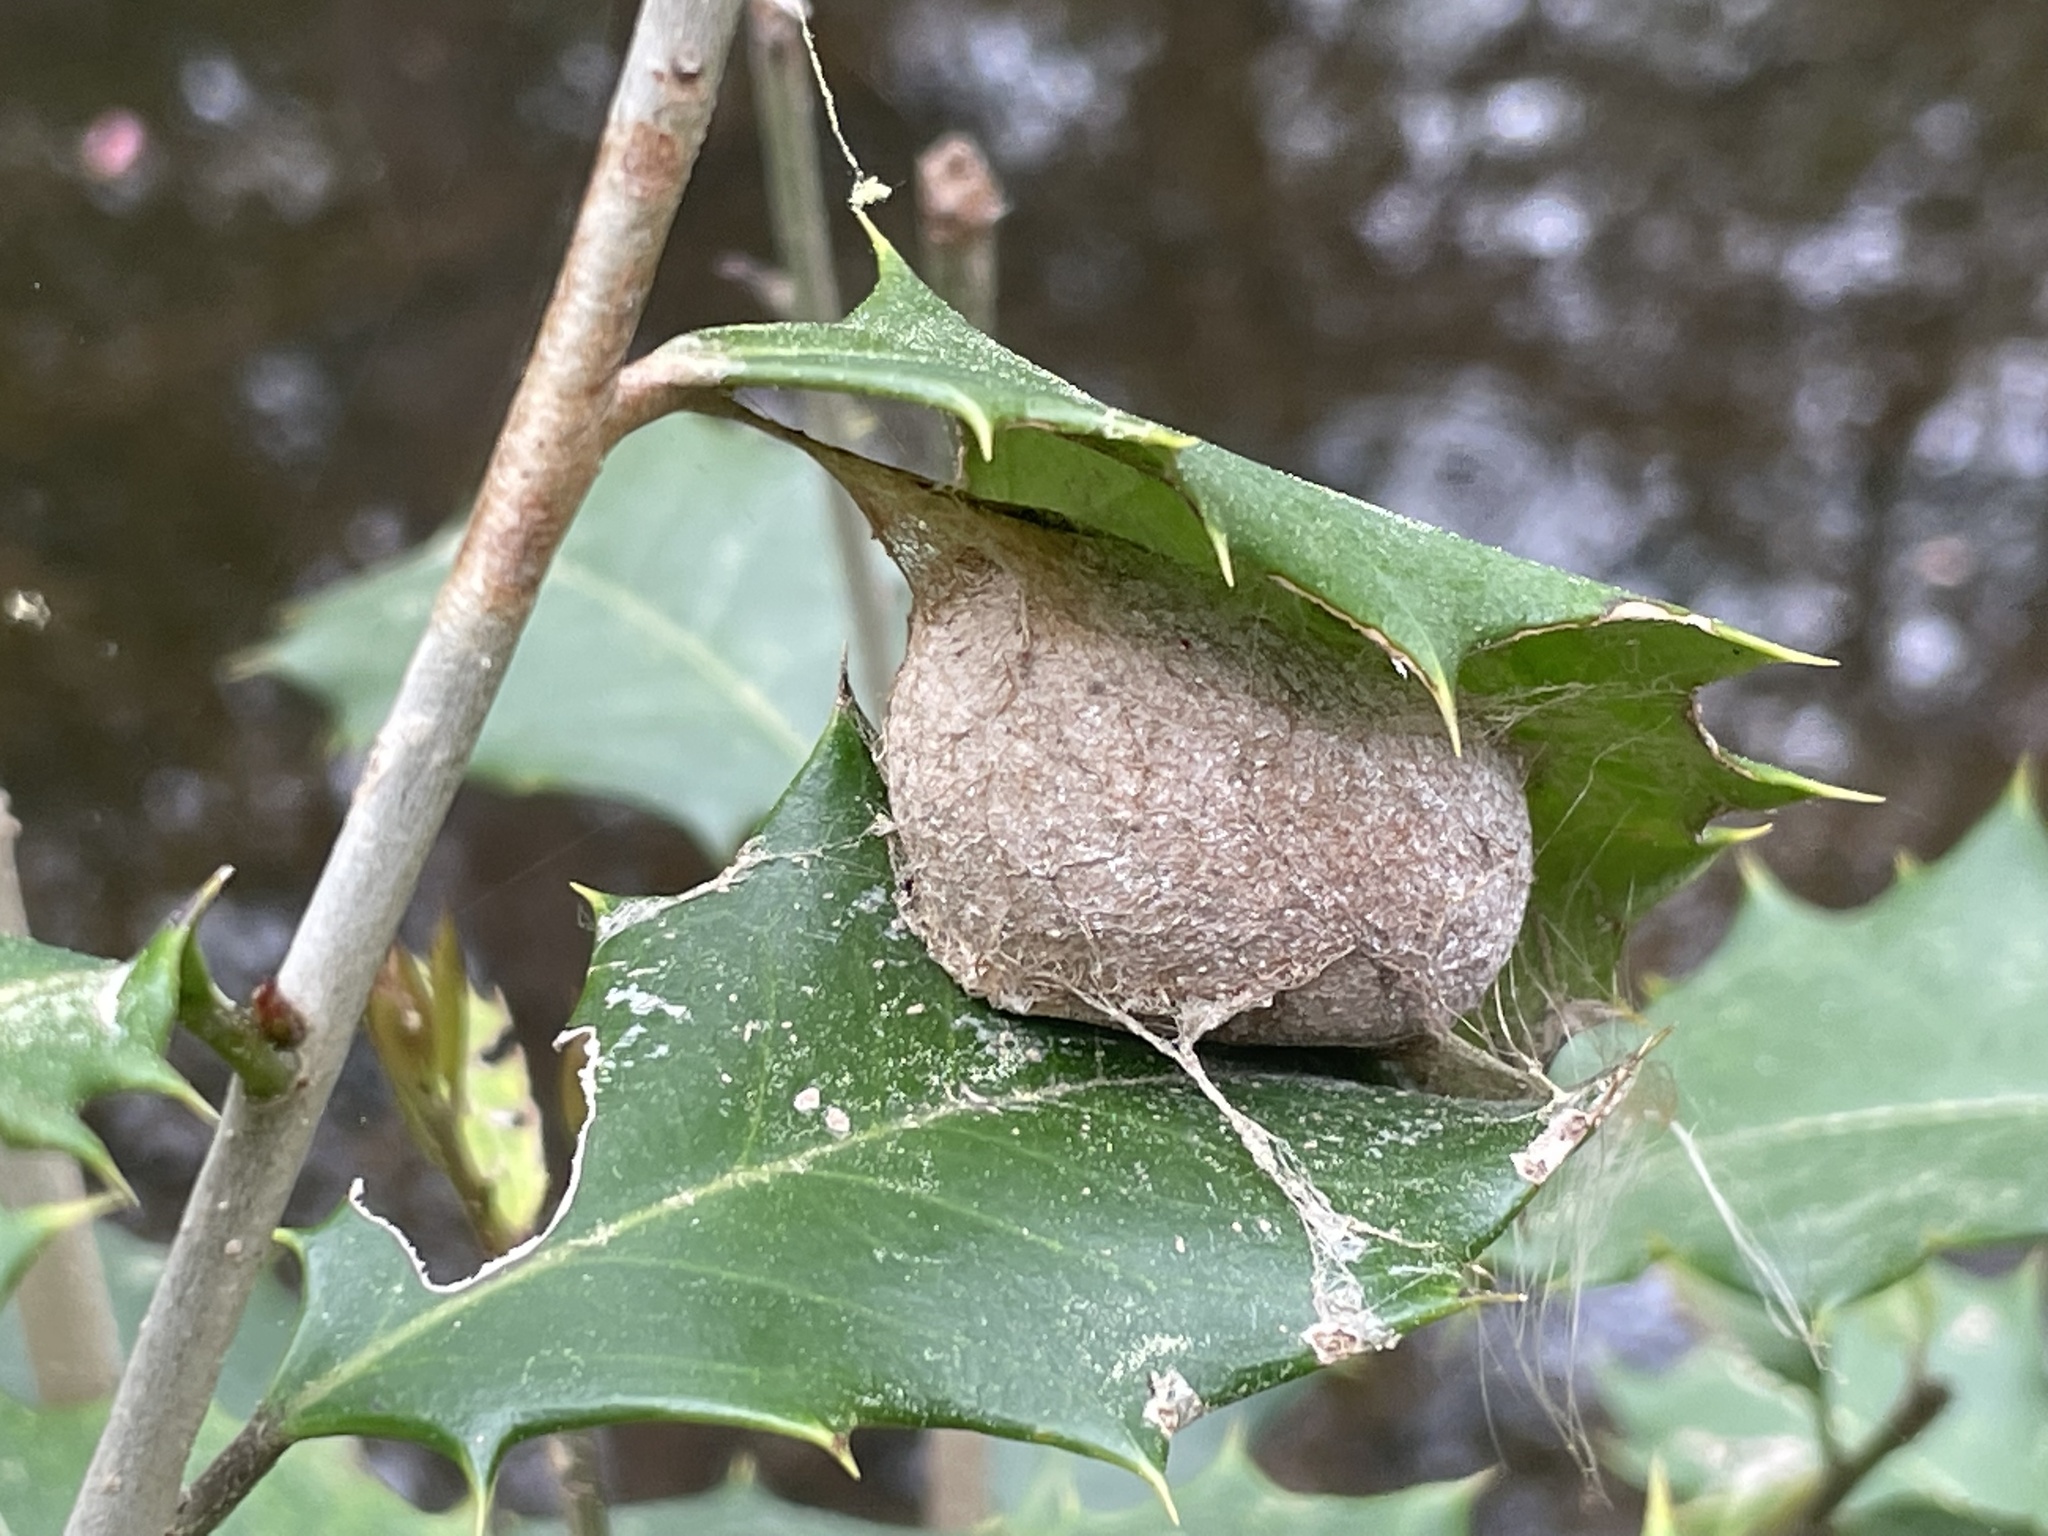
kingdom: Animalia
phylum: Arthropoda
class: Insecta
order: Lepidoptera
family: Saturniidae
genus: Antheraea
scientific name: Antheraea polyphemus
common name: Polyphemus moth
